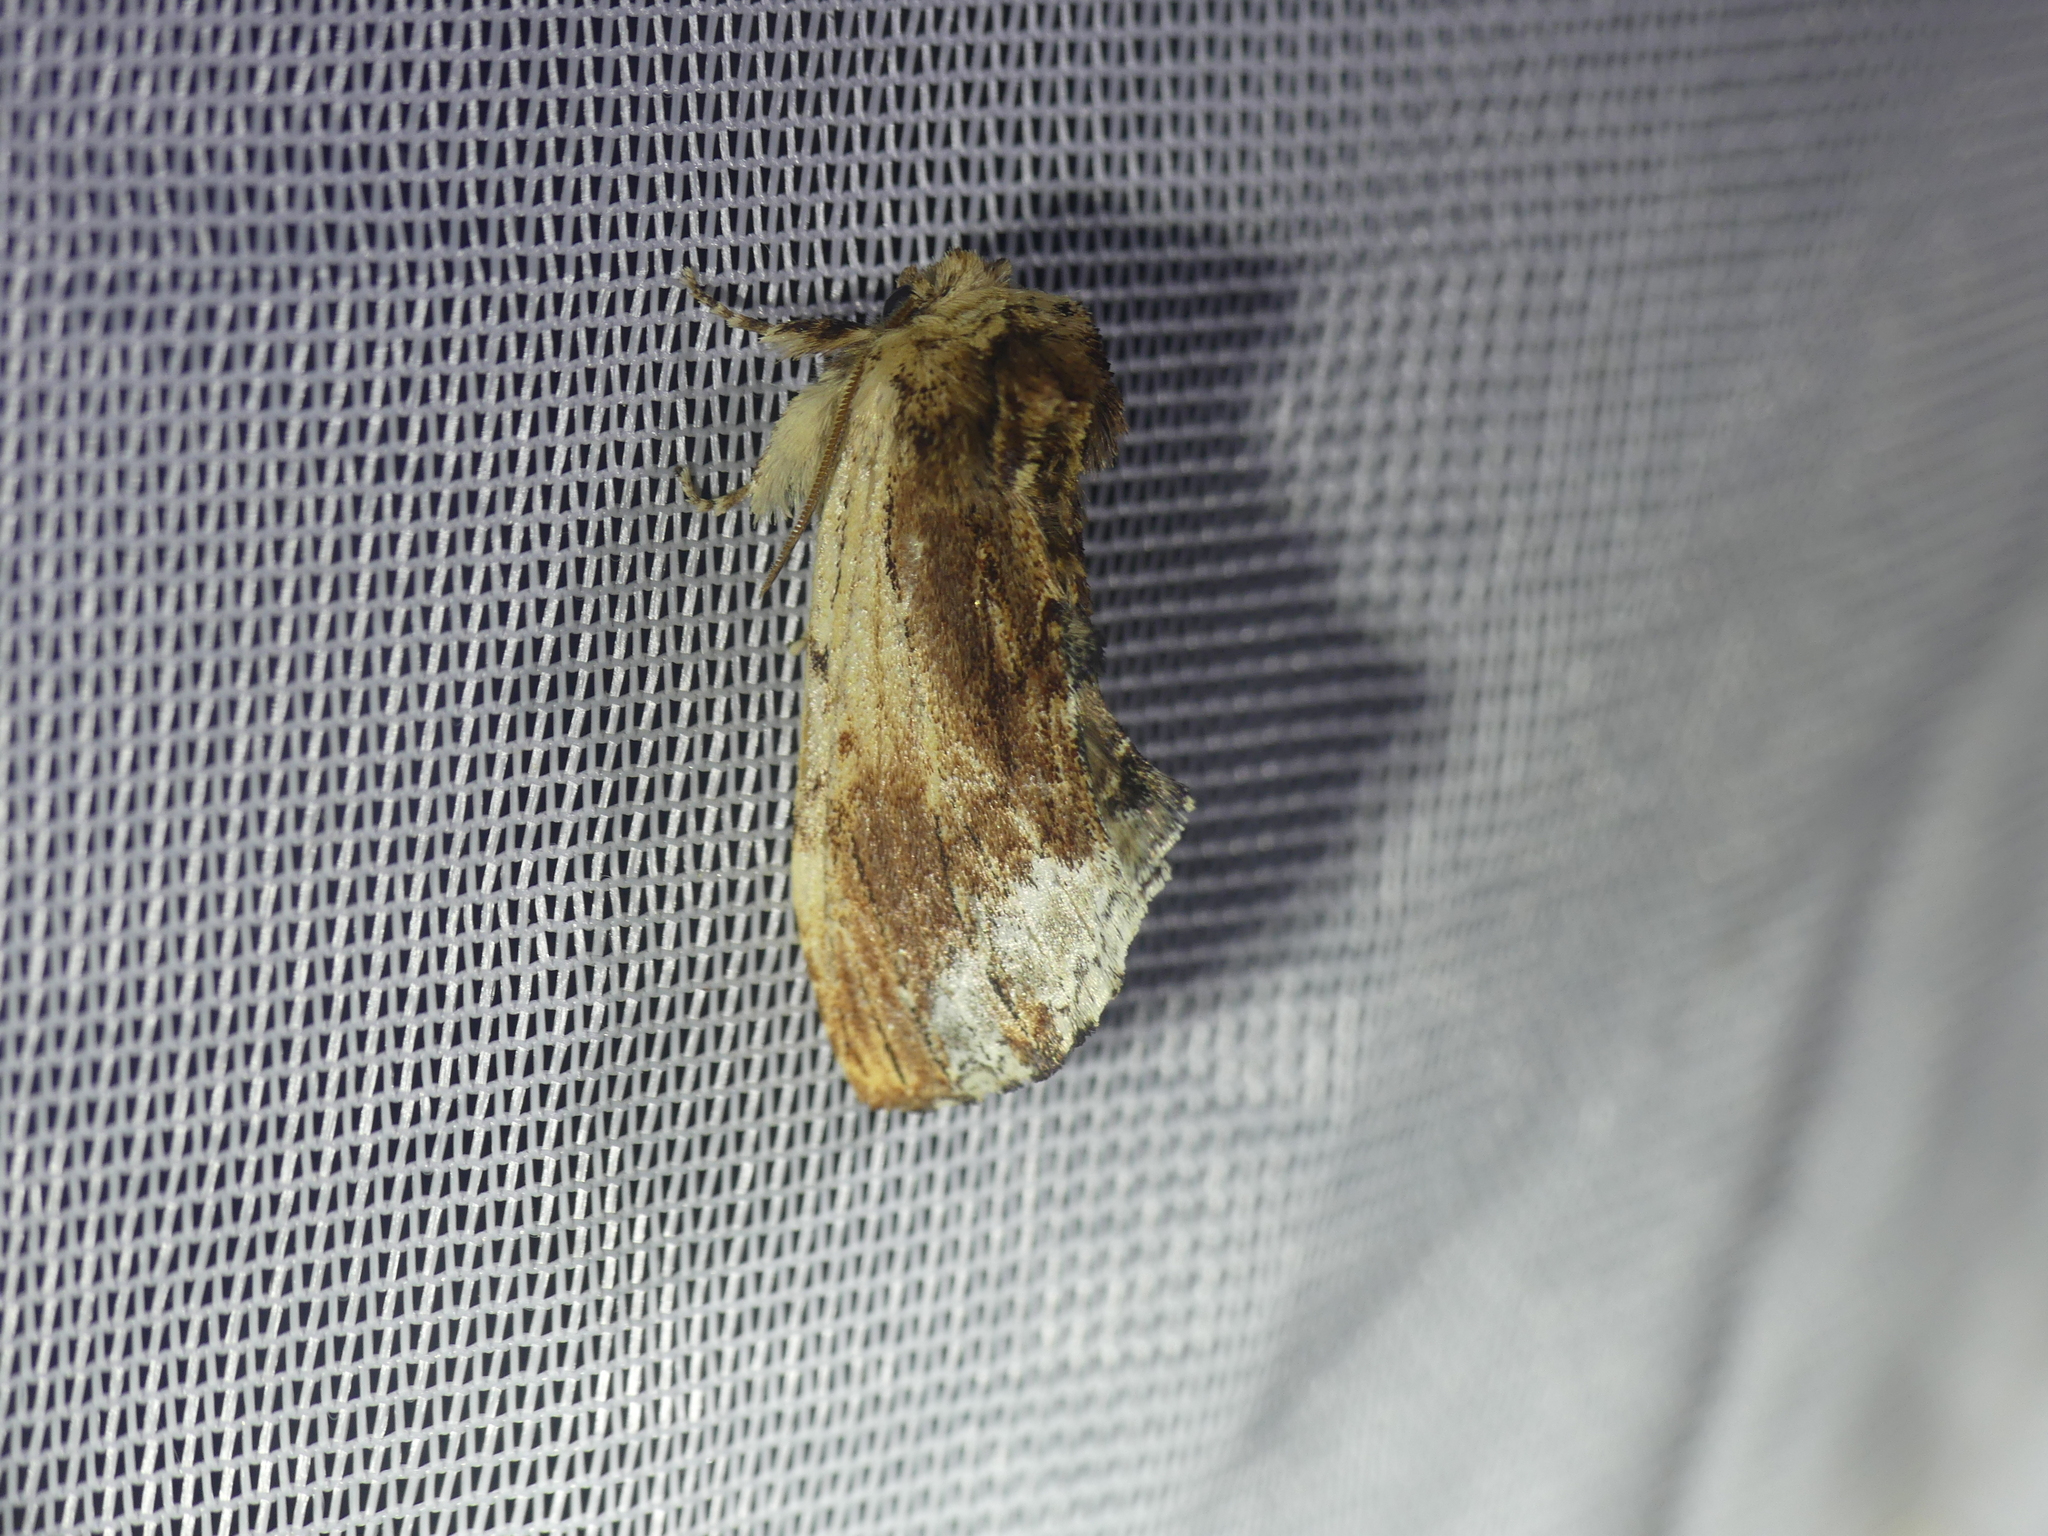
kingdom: Animalia
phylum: Arthropoda
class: Insecta
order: Lepidoptera
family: Notodontidae
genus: Ptilodon
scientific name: Ptilodon cucullina
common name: Maple prominent
